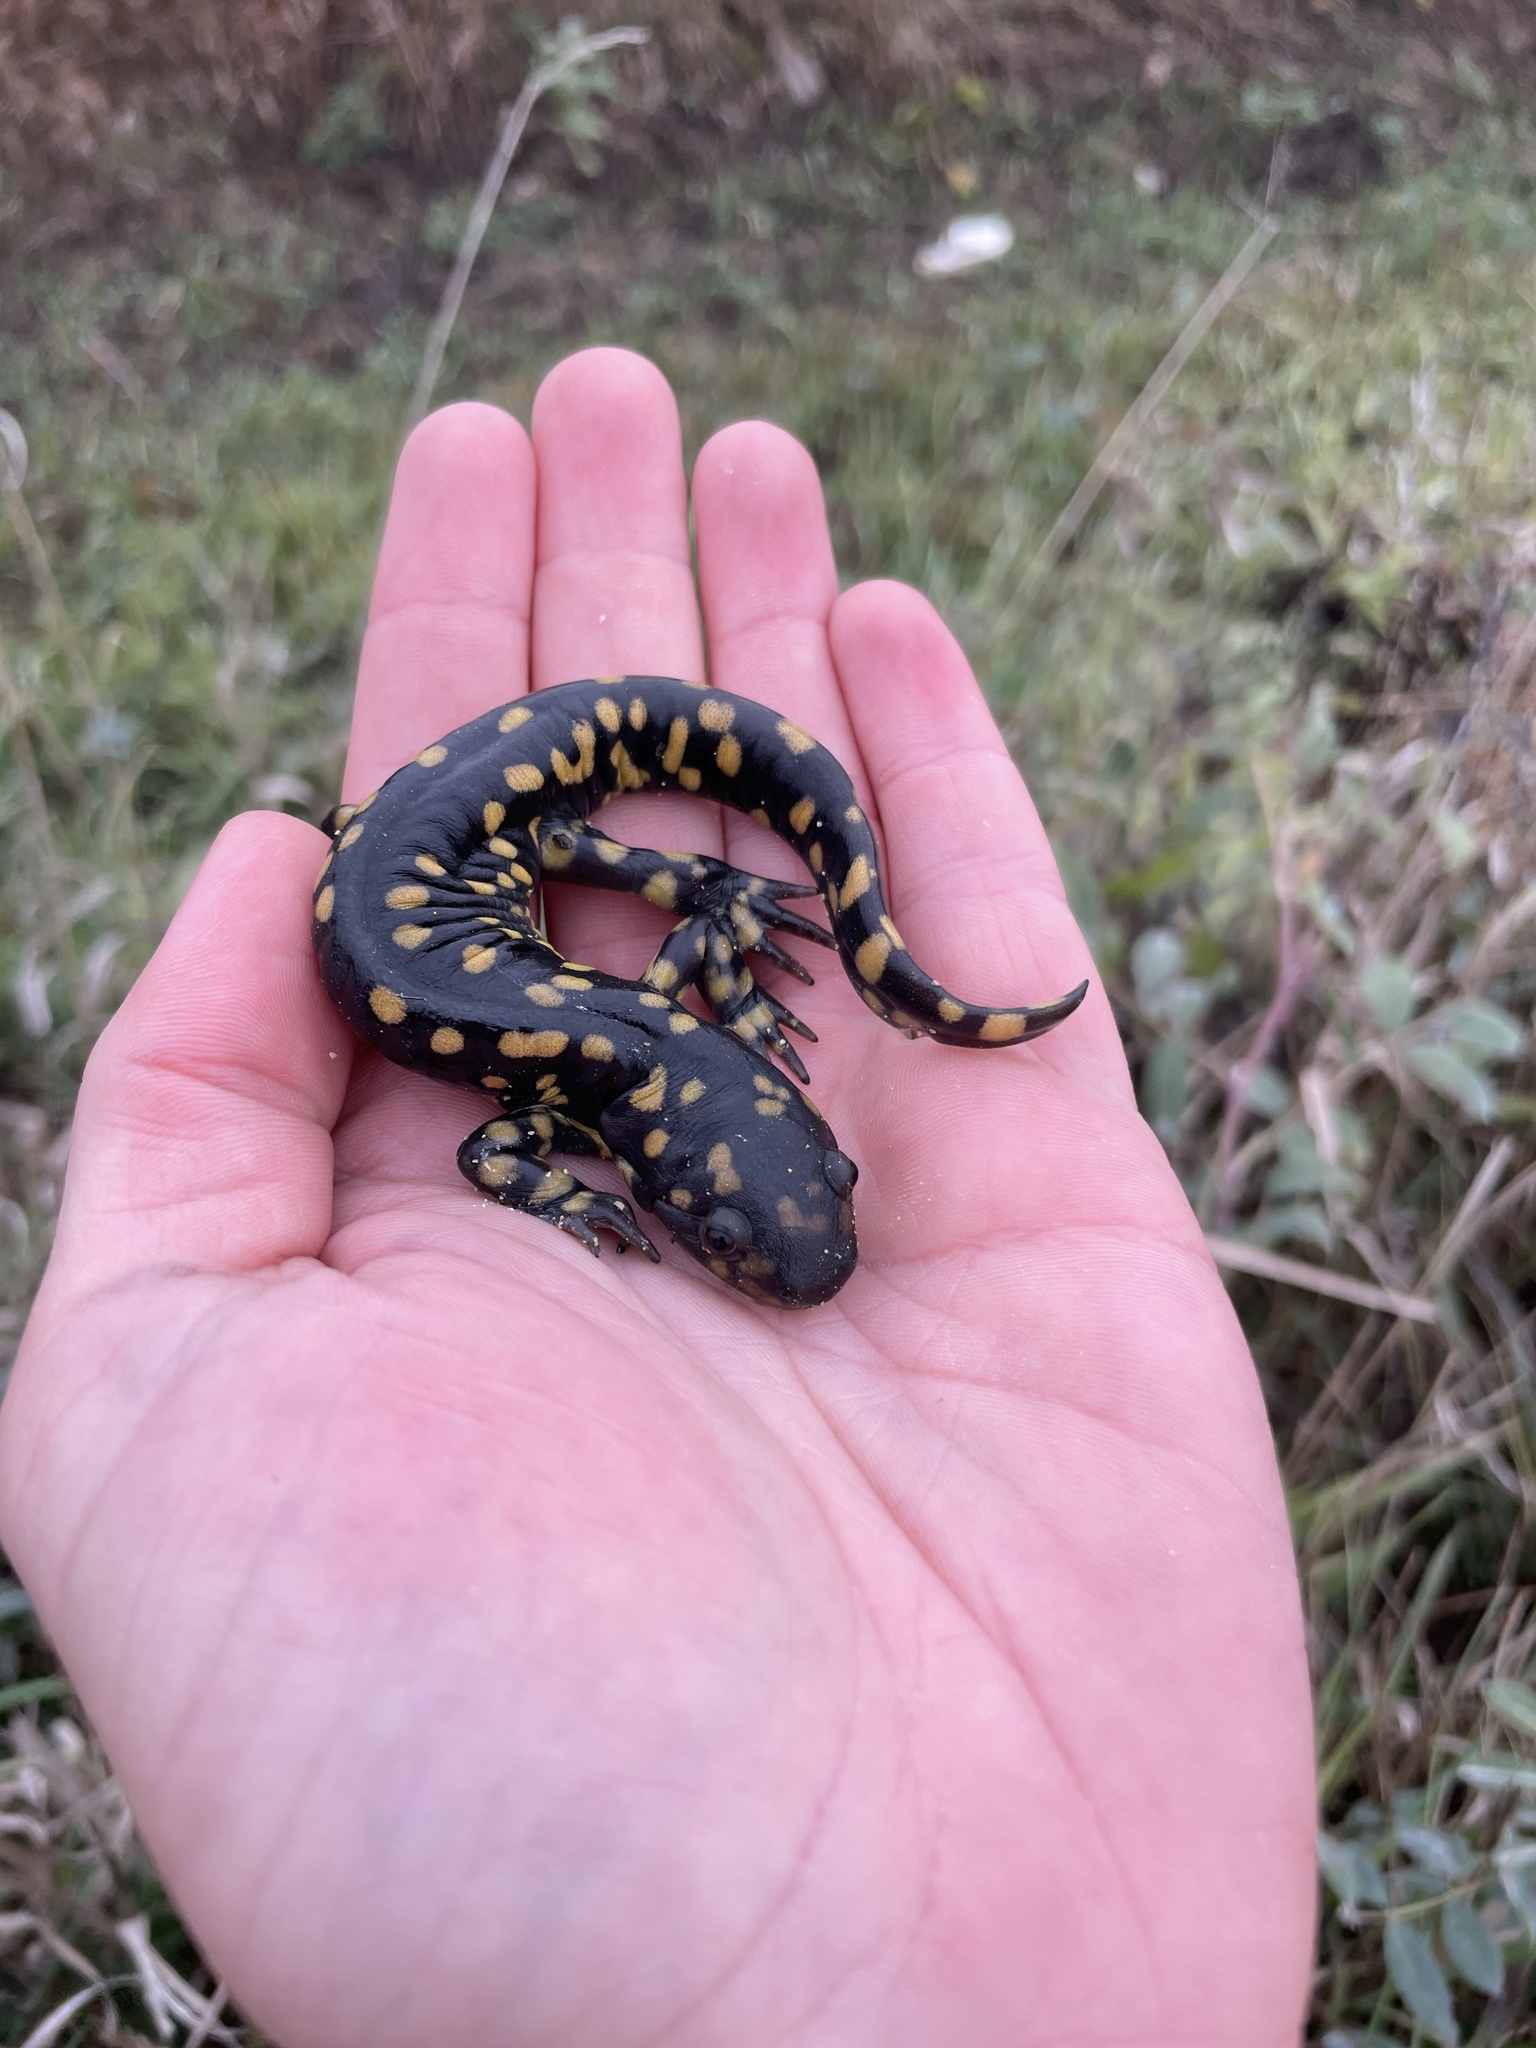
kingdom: Animalia
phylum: Chordata
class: Amphibia
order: Caudata
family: Ambystomatidae
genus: Ambystoma
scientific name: Ambystoma tigrinum
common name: Tiger salamander
